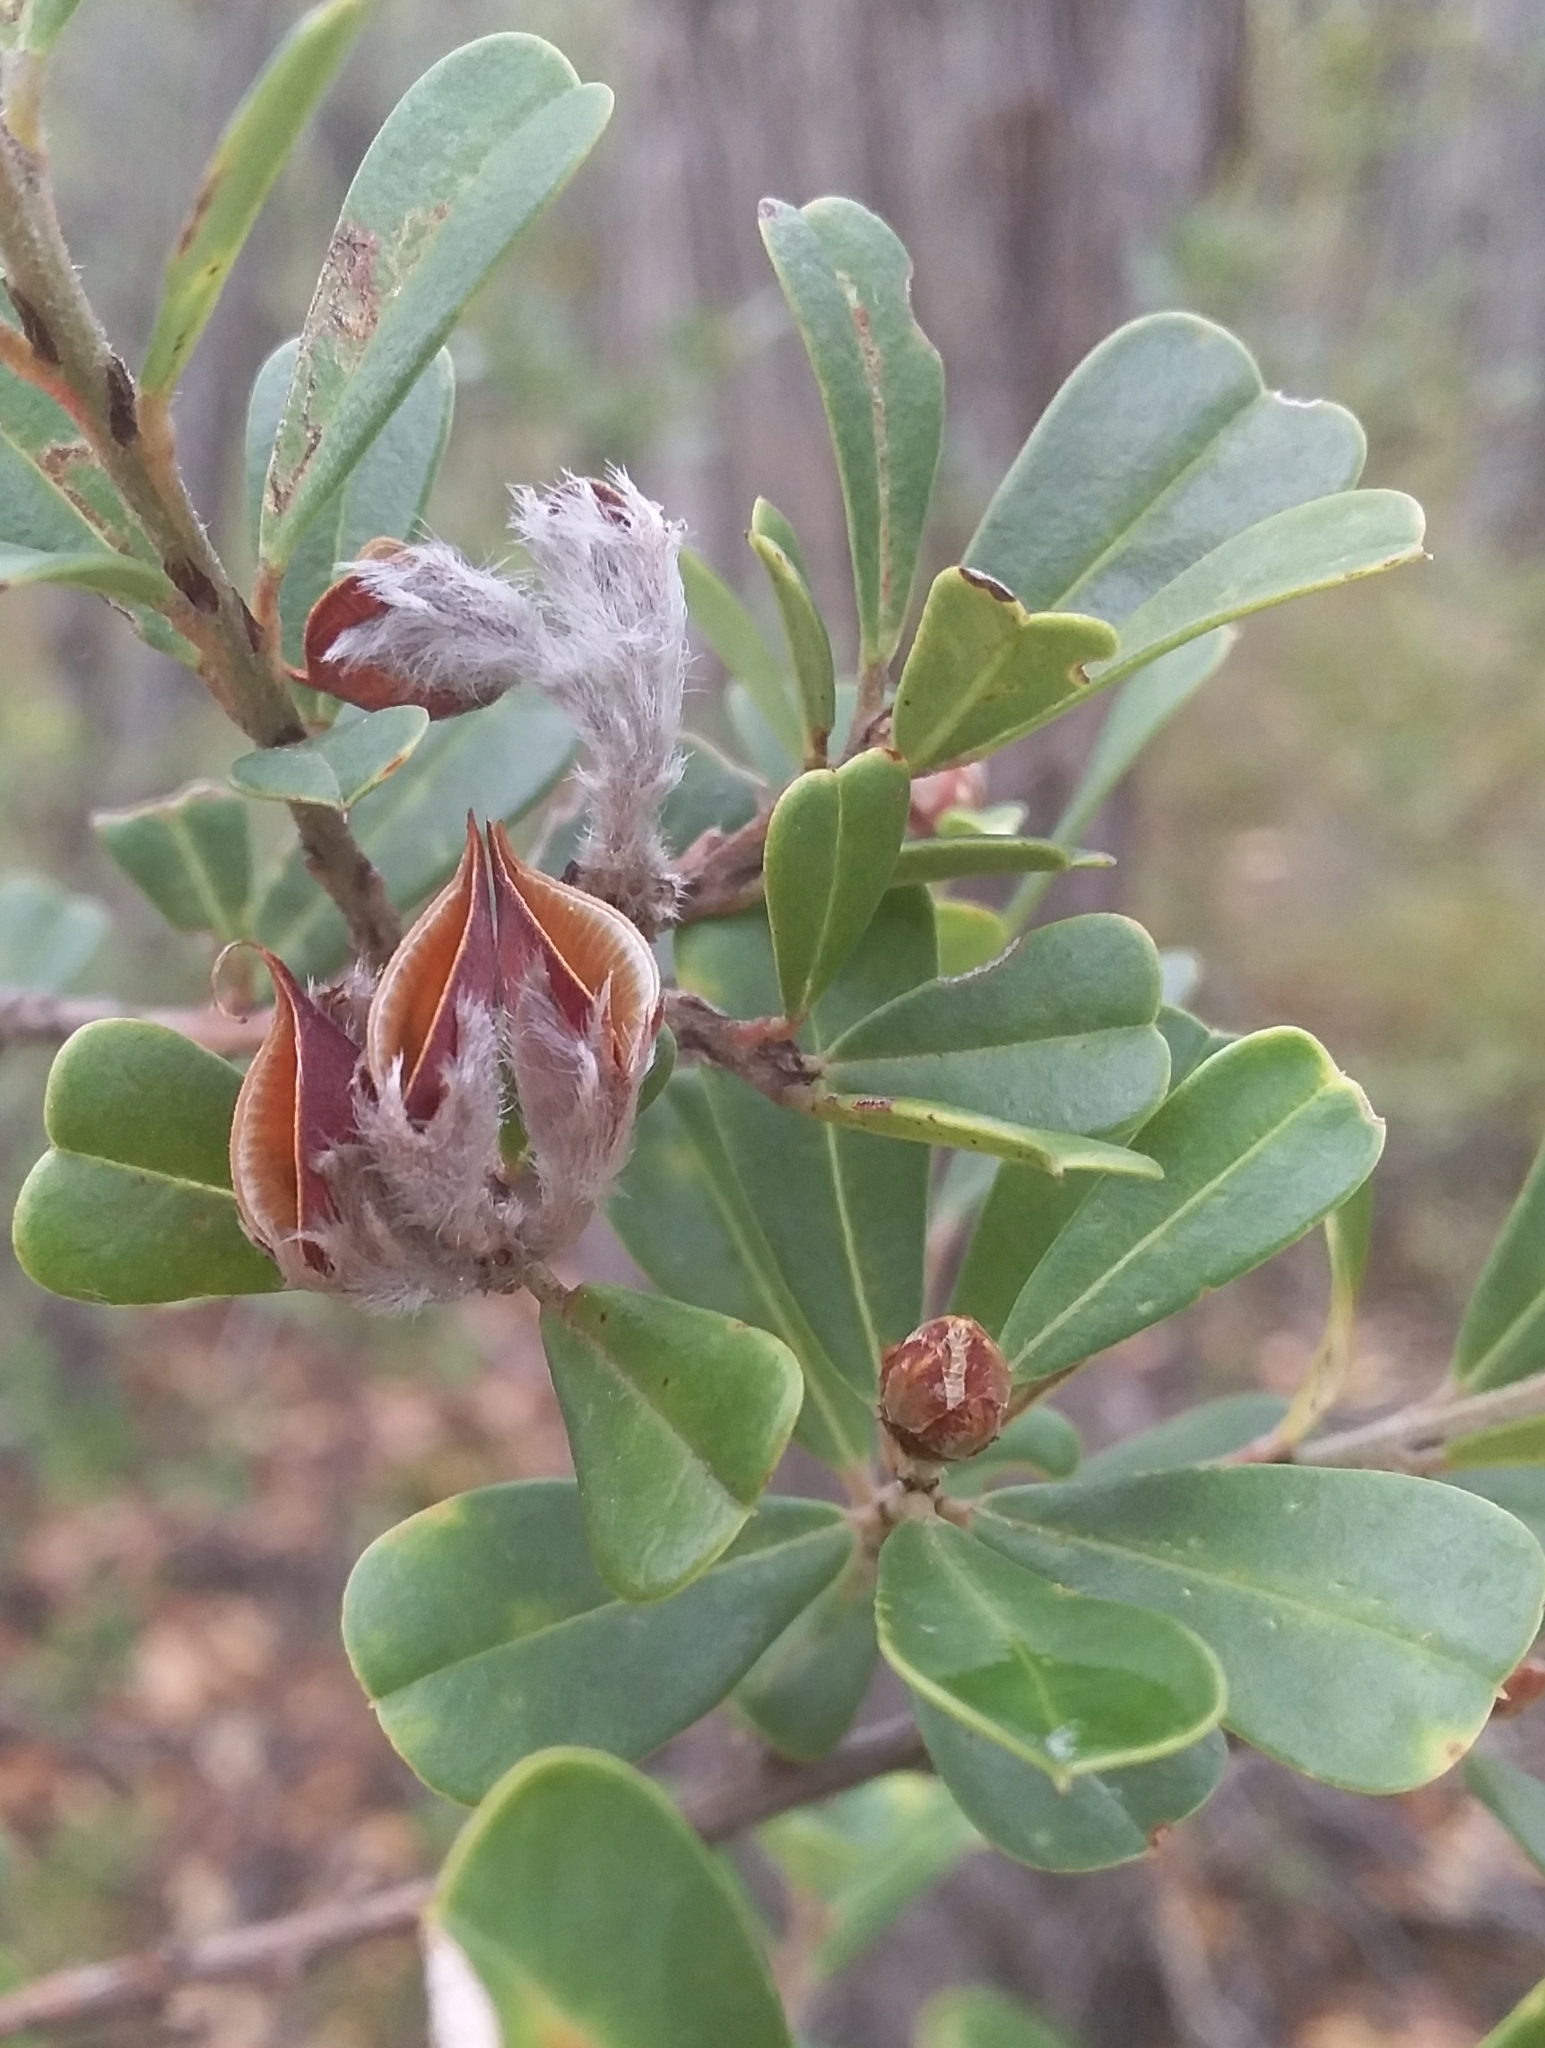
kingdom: Plantae
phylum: Tracheophyta
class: Magnoliopsida
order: Fabales
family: Fabaceae
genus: Pultenaea
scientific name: Pultenaea daphnoides
